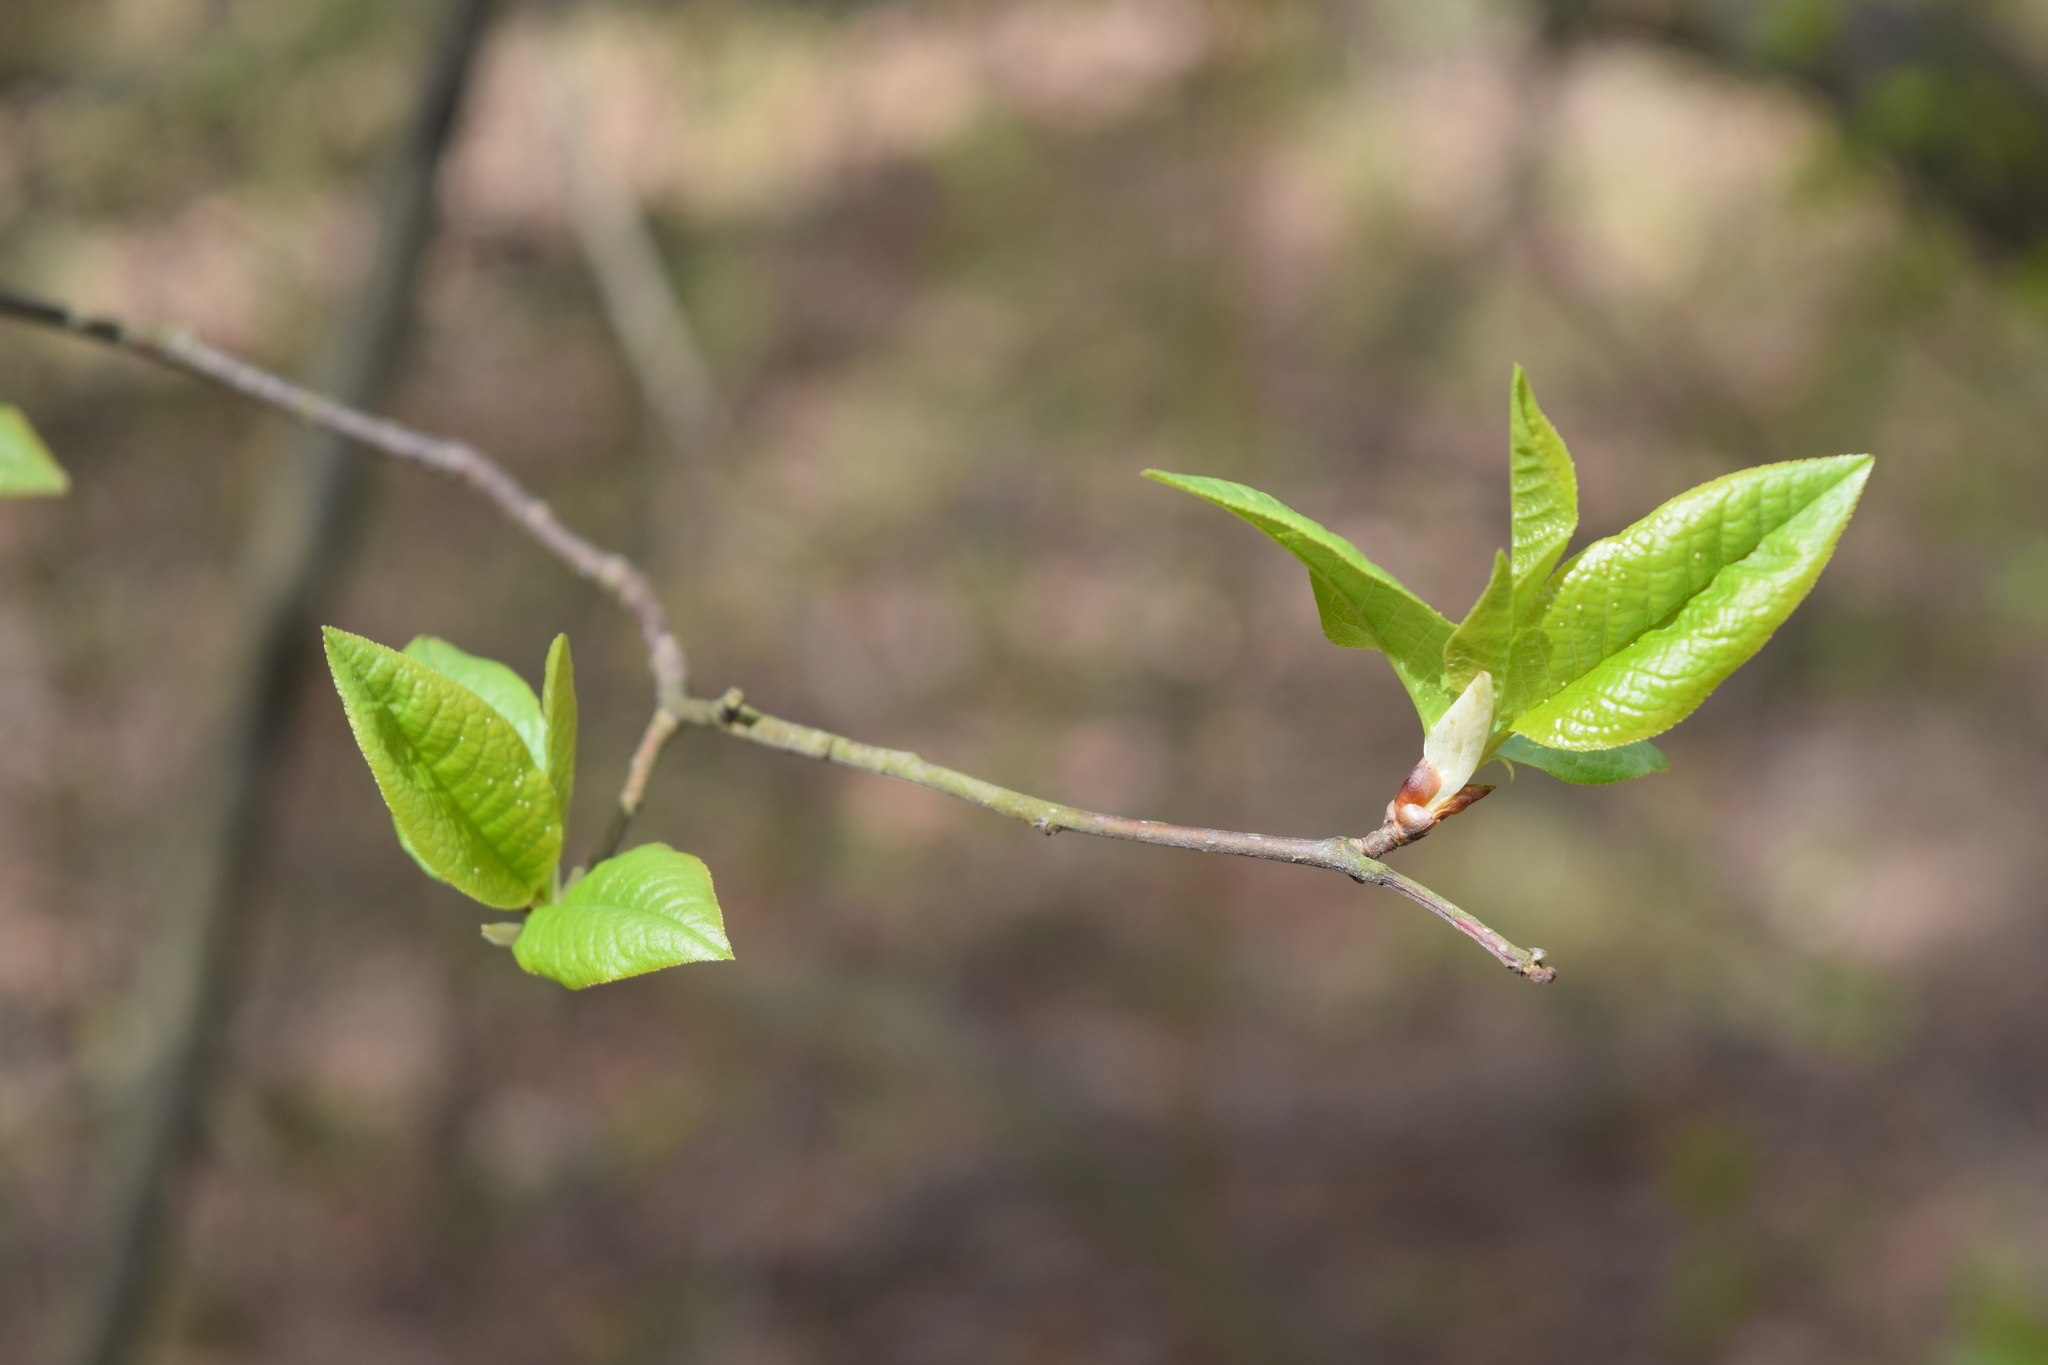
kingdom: Plantae
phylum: Tracheophyta
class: Magnoliopsida
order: Rosales
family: Rosaceae
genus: Prunus
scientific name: Prunus padus
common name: Bird cherry
